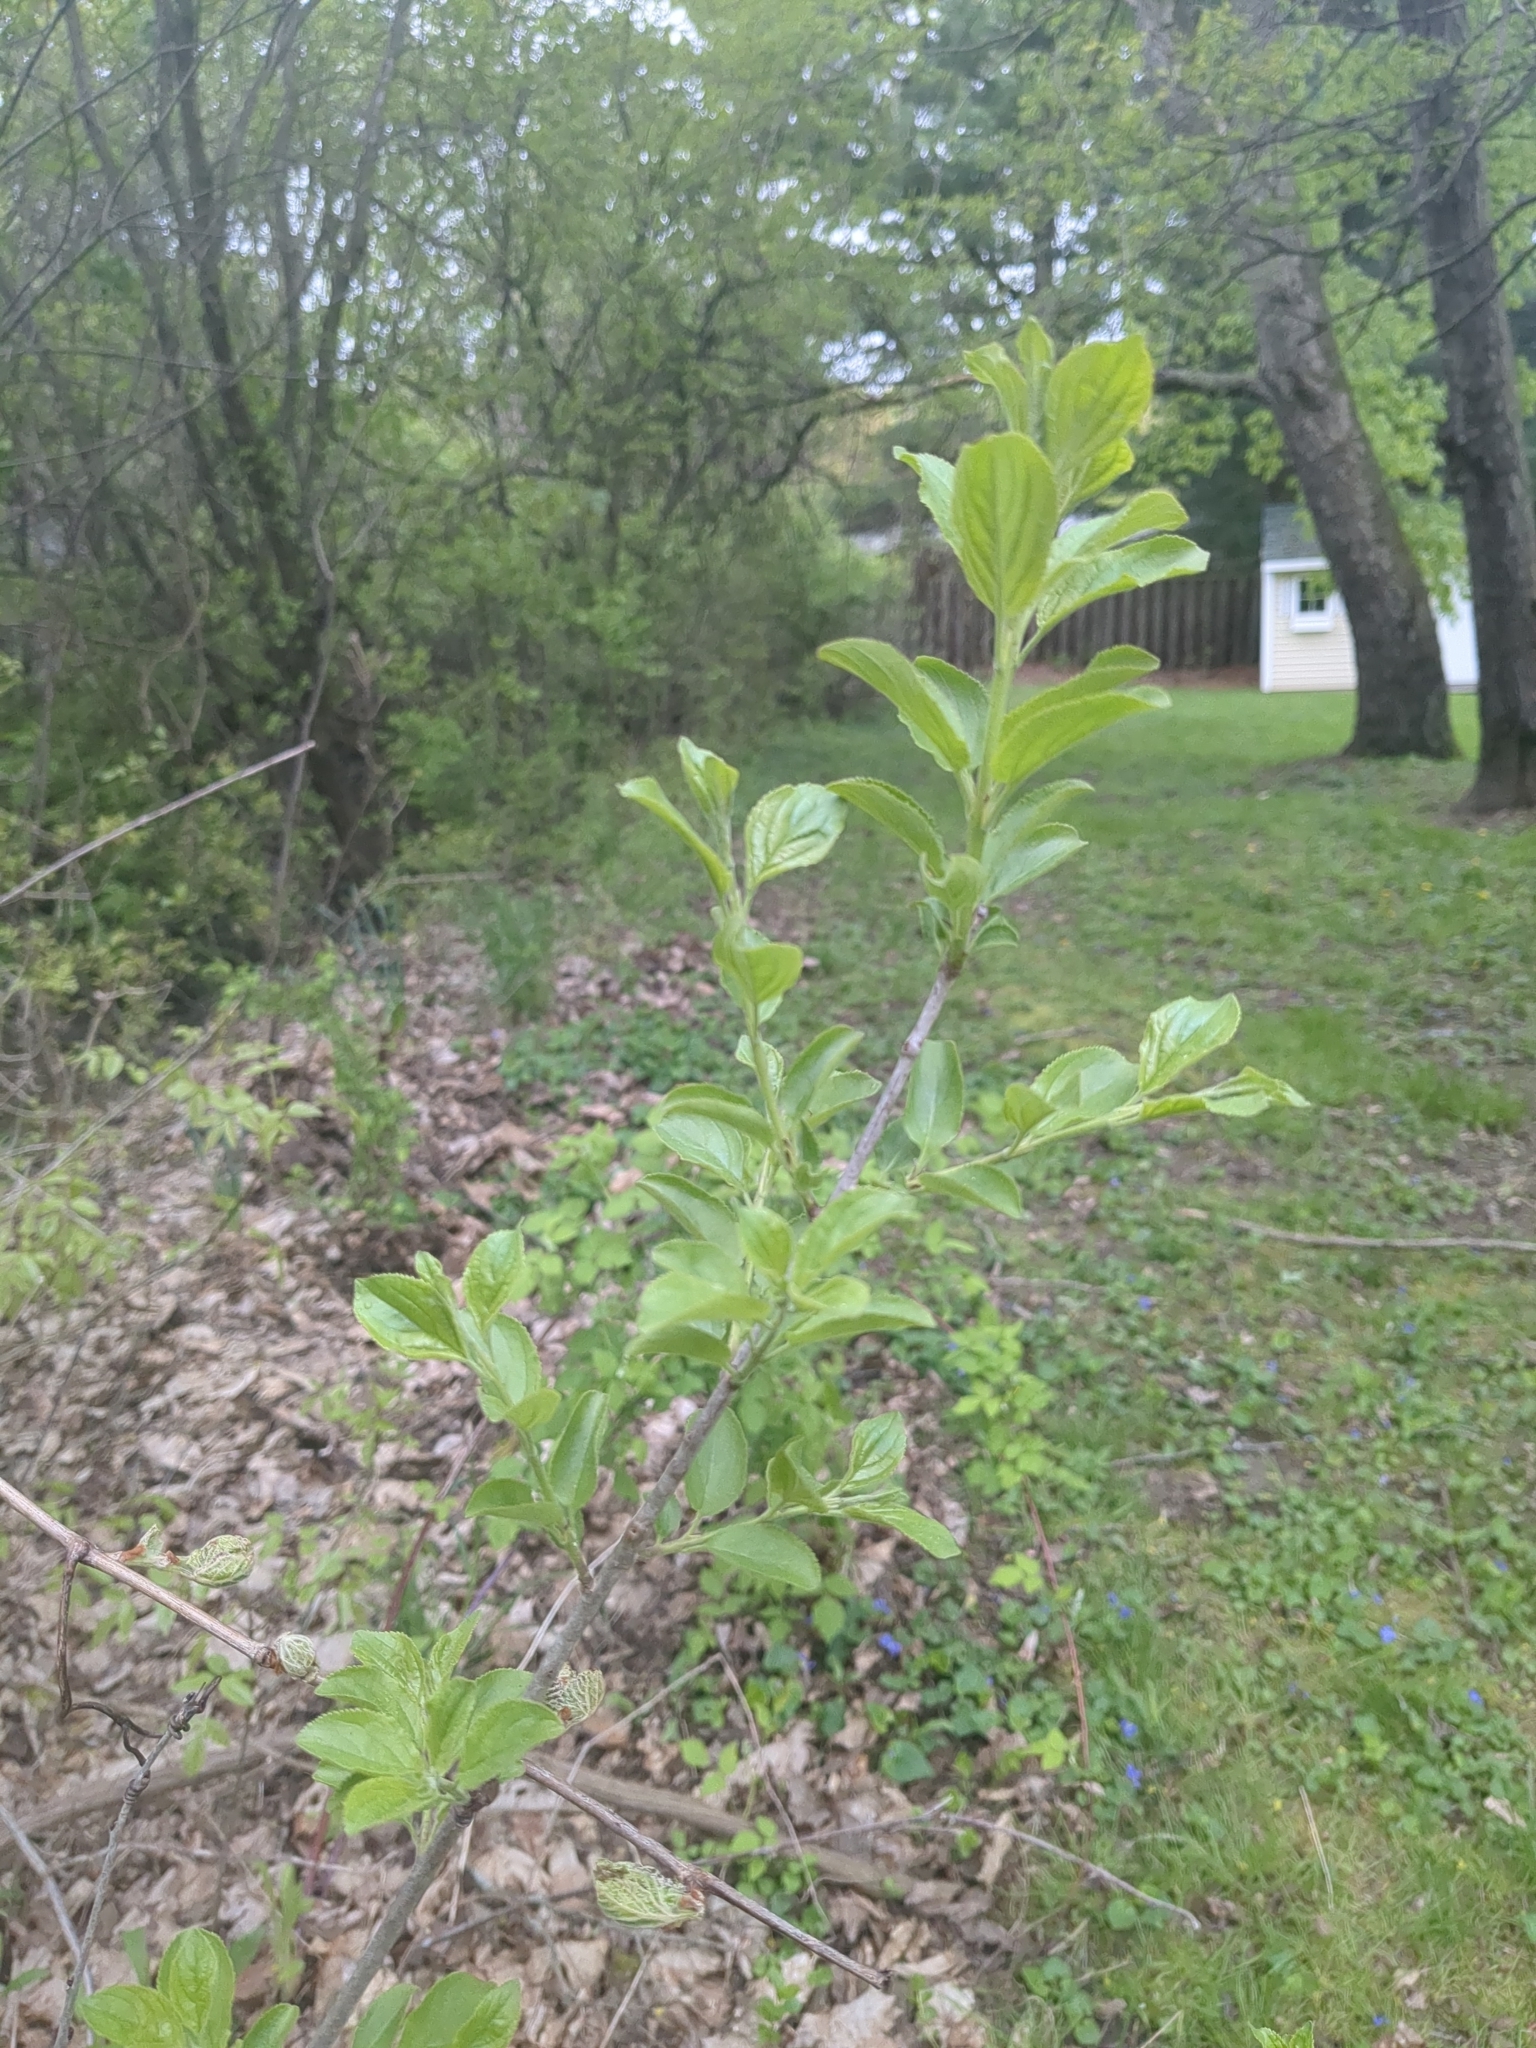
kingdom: Plantae
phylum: Tracheophyta
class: Magnoliopsida
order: Rosales
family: Rhamnaceae
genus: Rhamnus
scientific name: Rhamnus cathartica
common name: Common buckthorn
